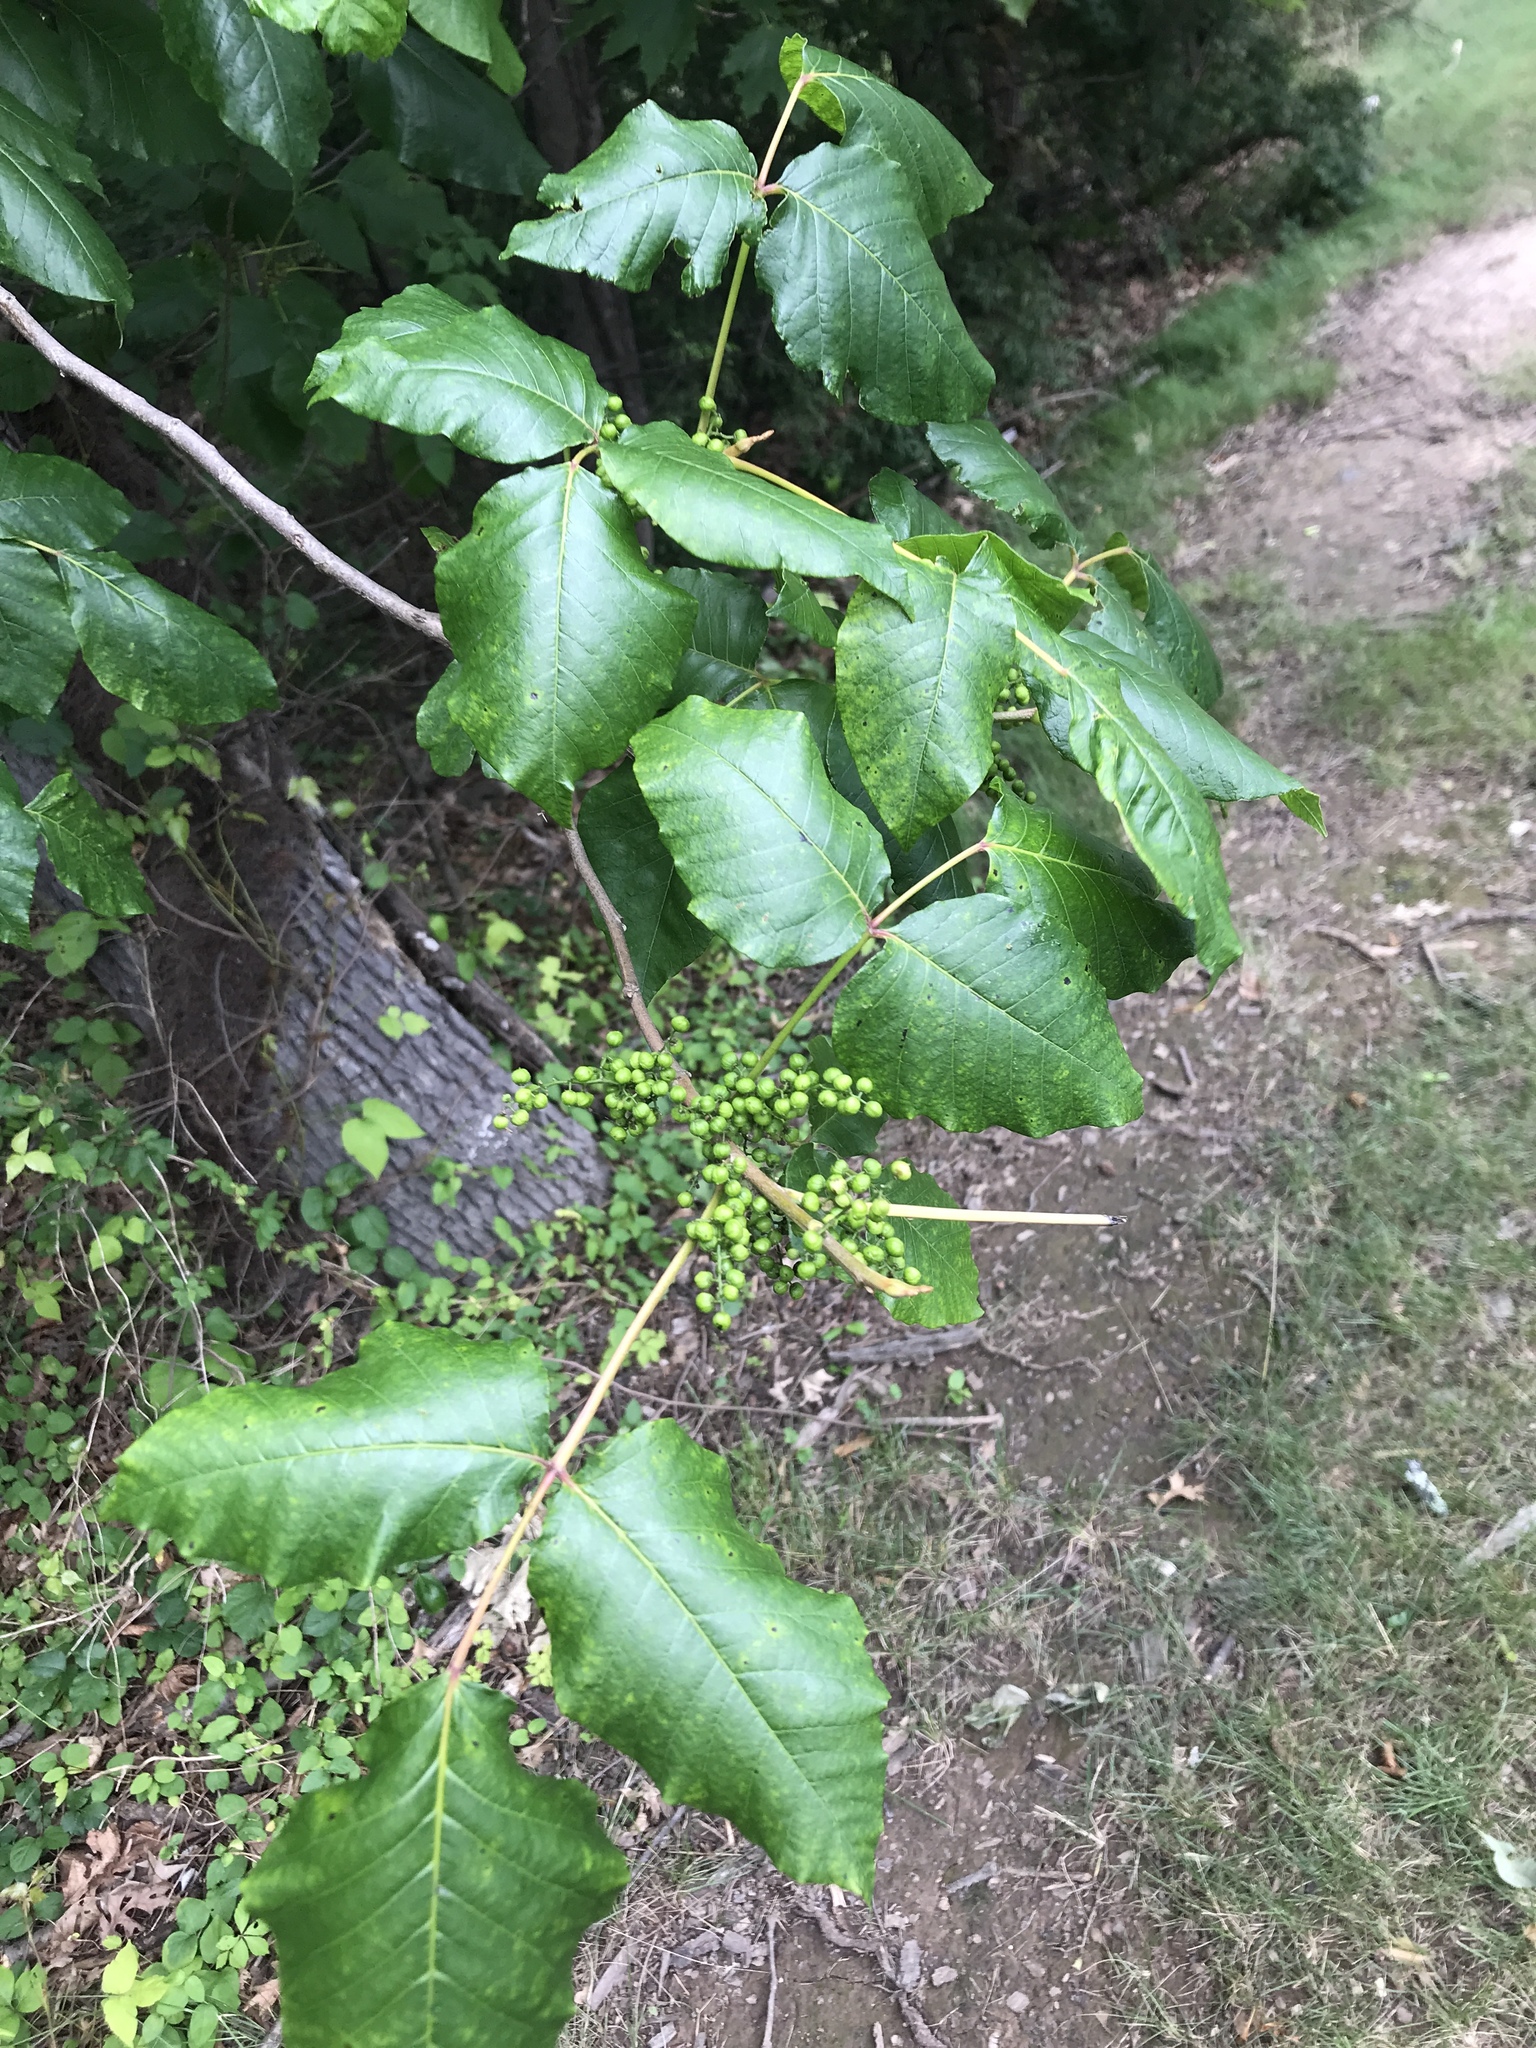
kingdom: Plantae
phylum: Tracheophyta
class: Magnoliopsida
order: Sapindales
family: Anacardiaceae
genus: Toxicodendron
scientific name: Toxicodendron radicans
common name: Poison ivy
